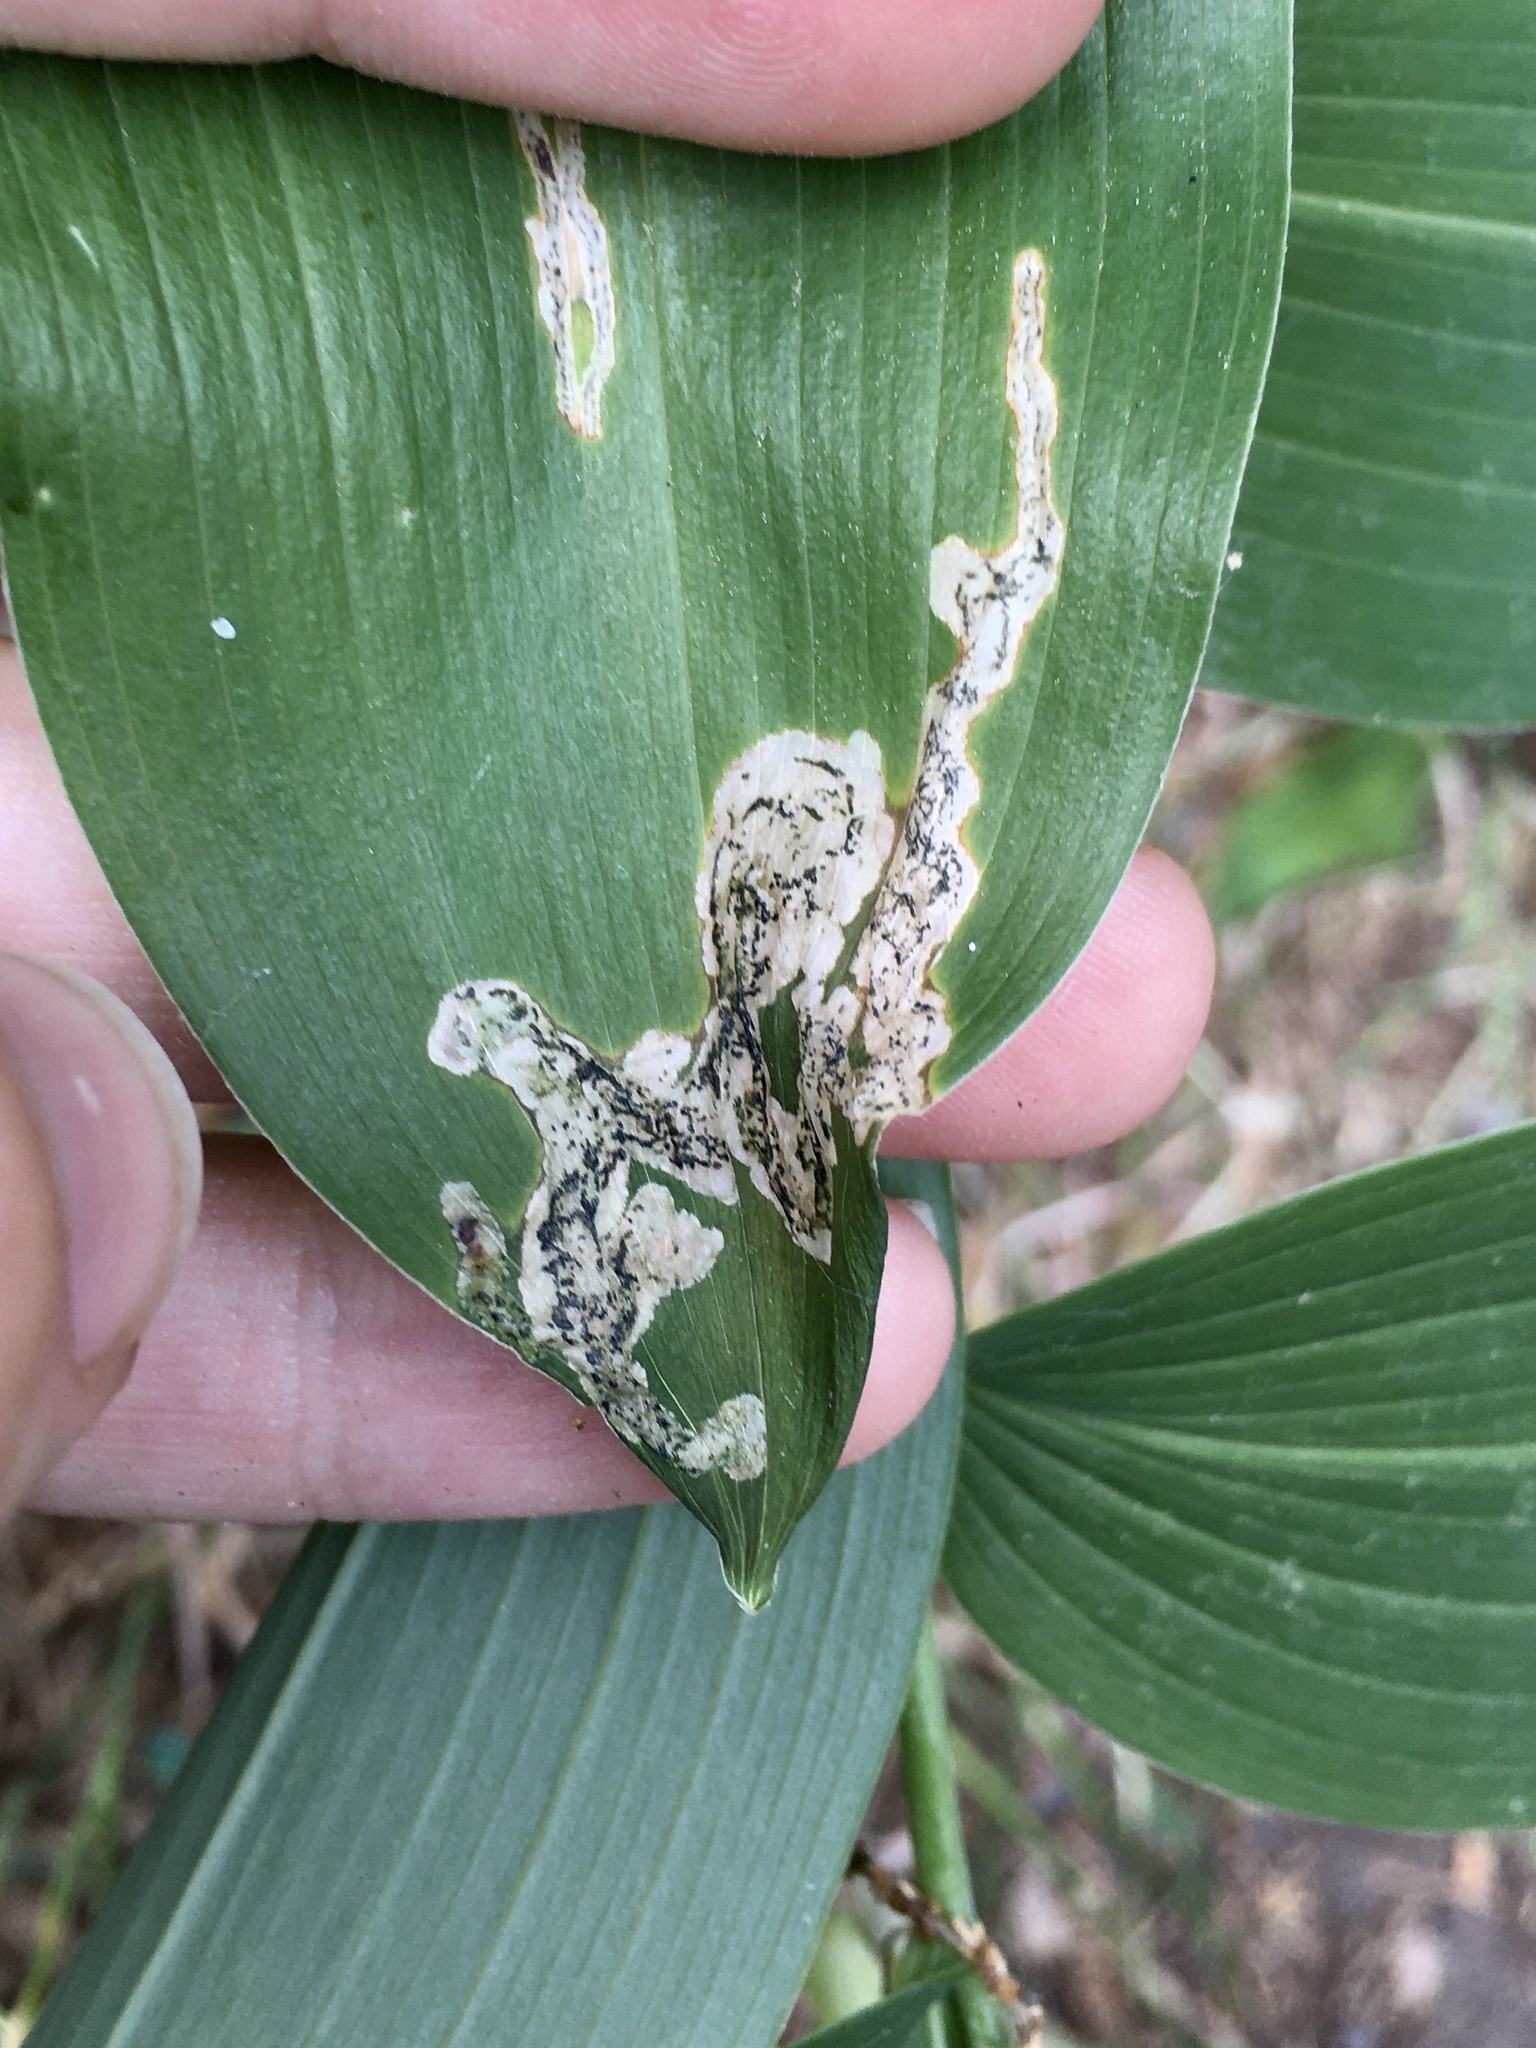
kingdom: Animalia
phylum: Arthropoda
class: Insecta
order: Diptera
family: Scathophagidae
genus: Leptopa
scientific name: Leptopa
